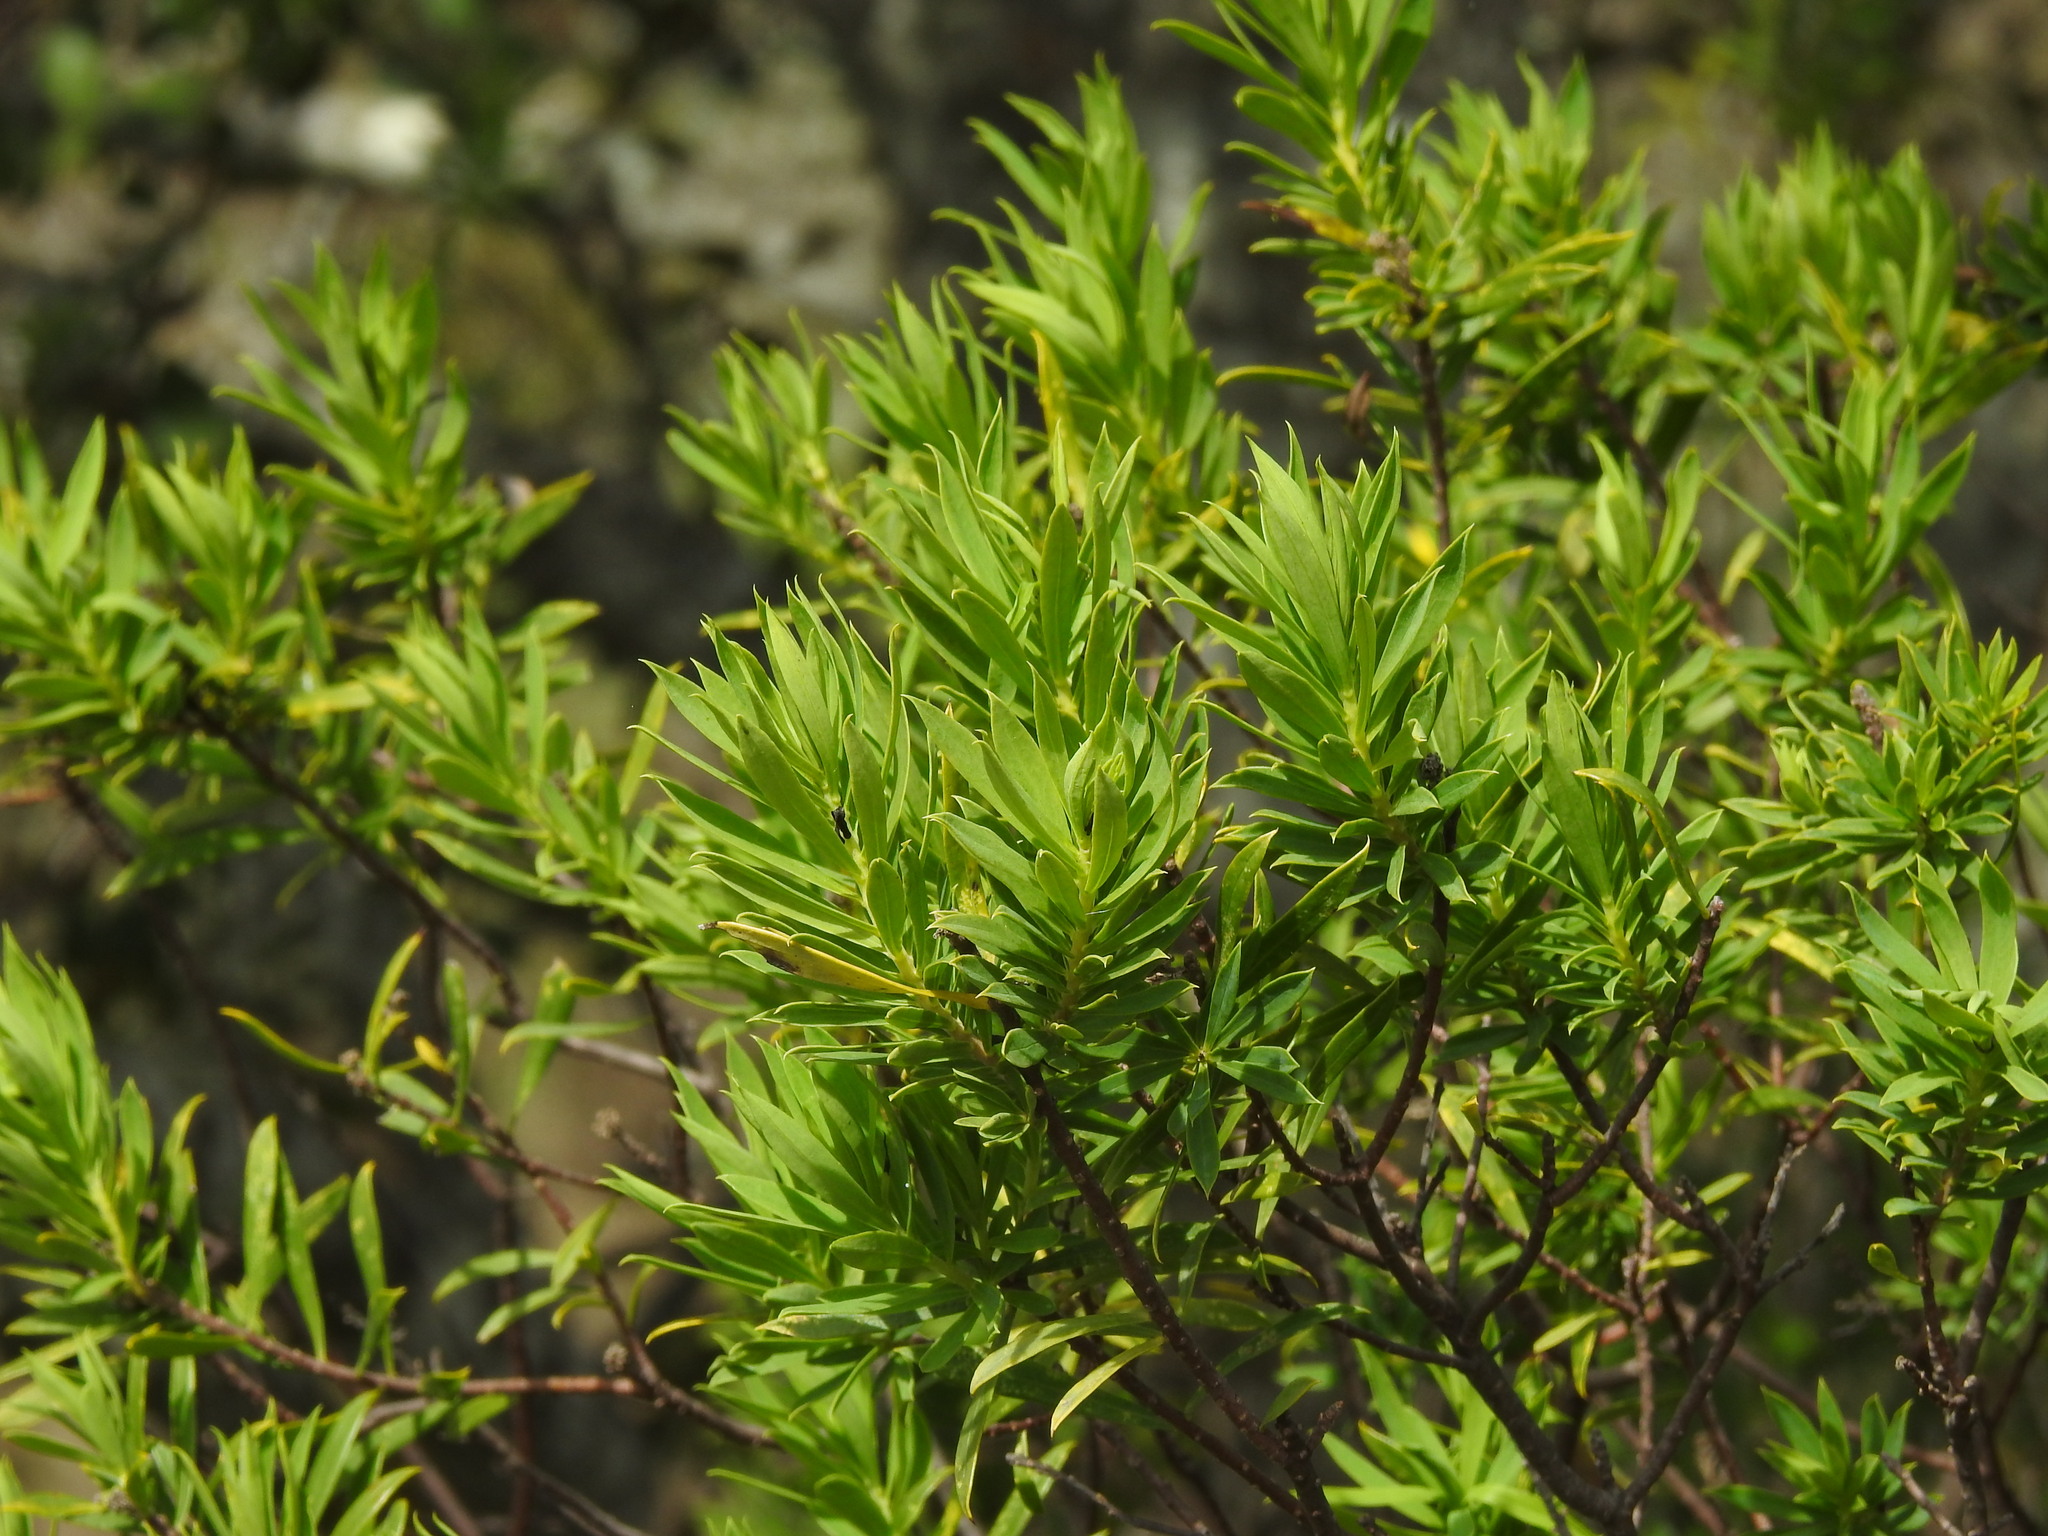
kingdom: Plantae
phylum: Tracheophyta
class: Magnoliopsida
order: Malvales
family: Thymelaeaceae
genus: Daphne
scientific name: Daphne gnidium
